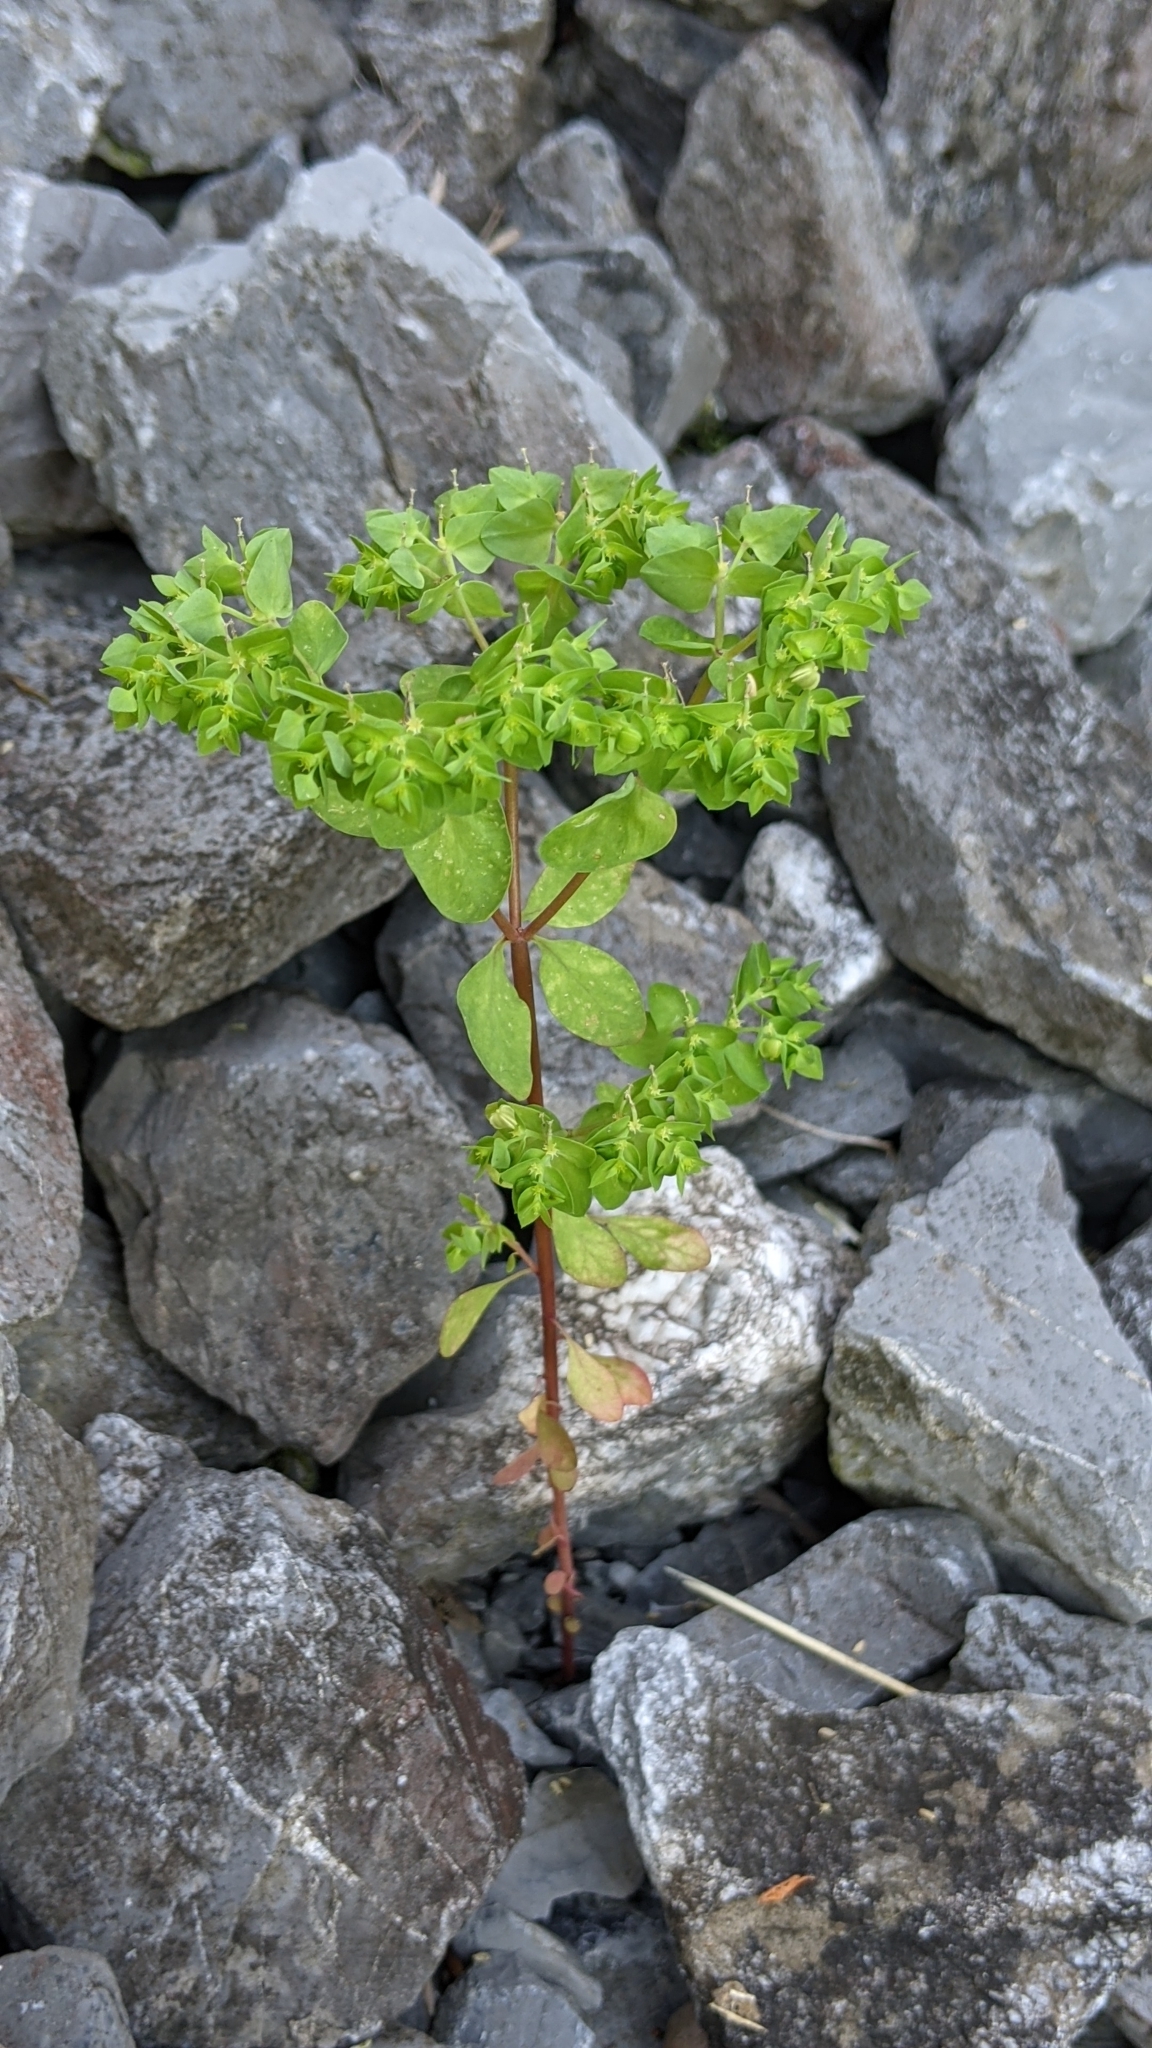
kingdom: Plantae
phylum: Tracheophyta
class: Magnoliopsida
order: Malpighiales
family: Euphorbiaceae
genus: Euphorbia
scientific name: Euphorbia peplus
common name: Petty spurge
